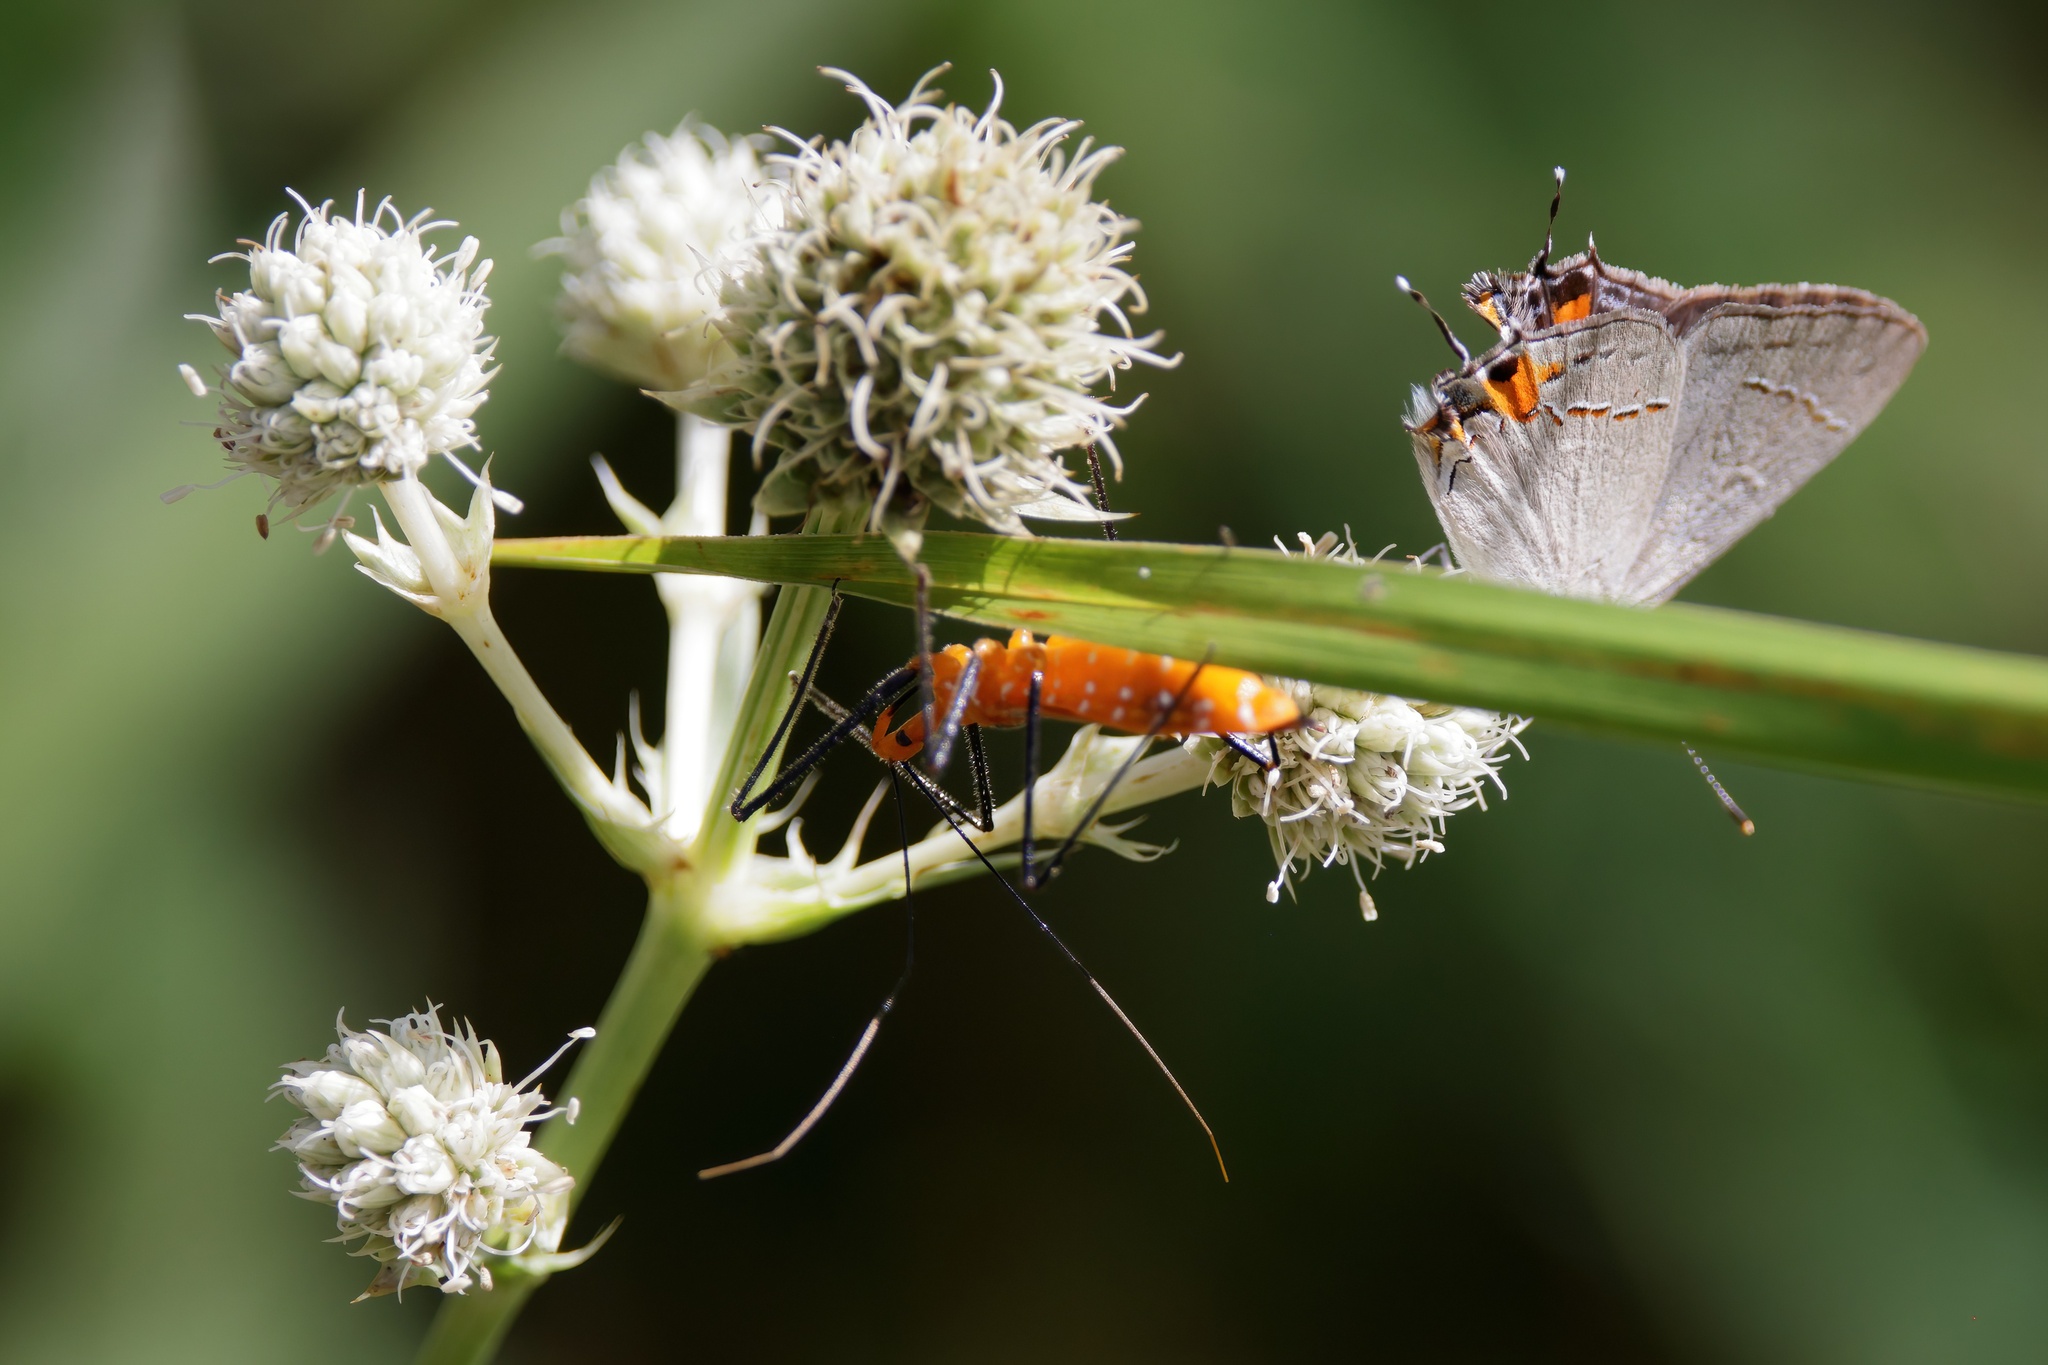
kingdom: Animalia
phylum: Arthropoda
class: Insecta
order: Lepidoptera
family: Lycaenidae
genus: Strymon
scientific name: Strymon melinus
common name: Gray hairstreak
